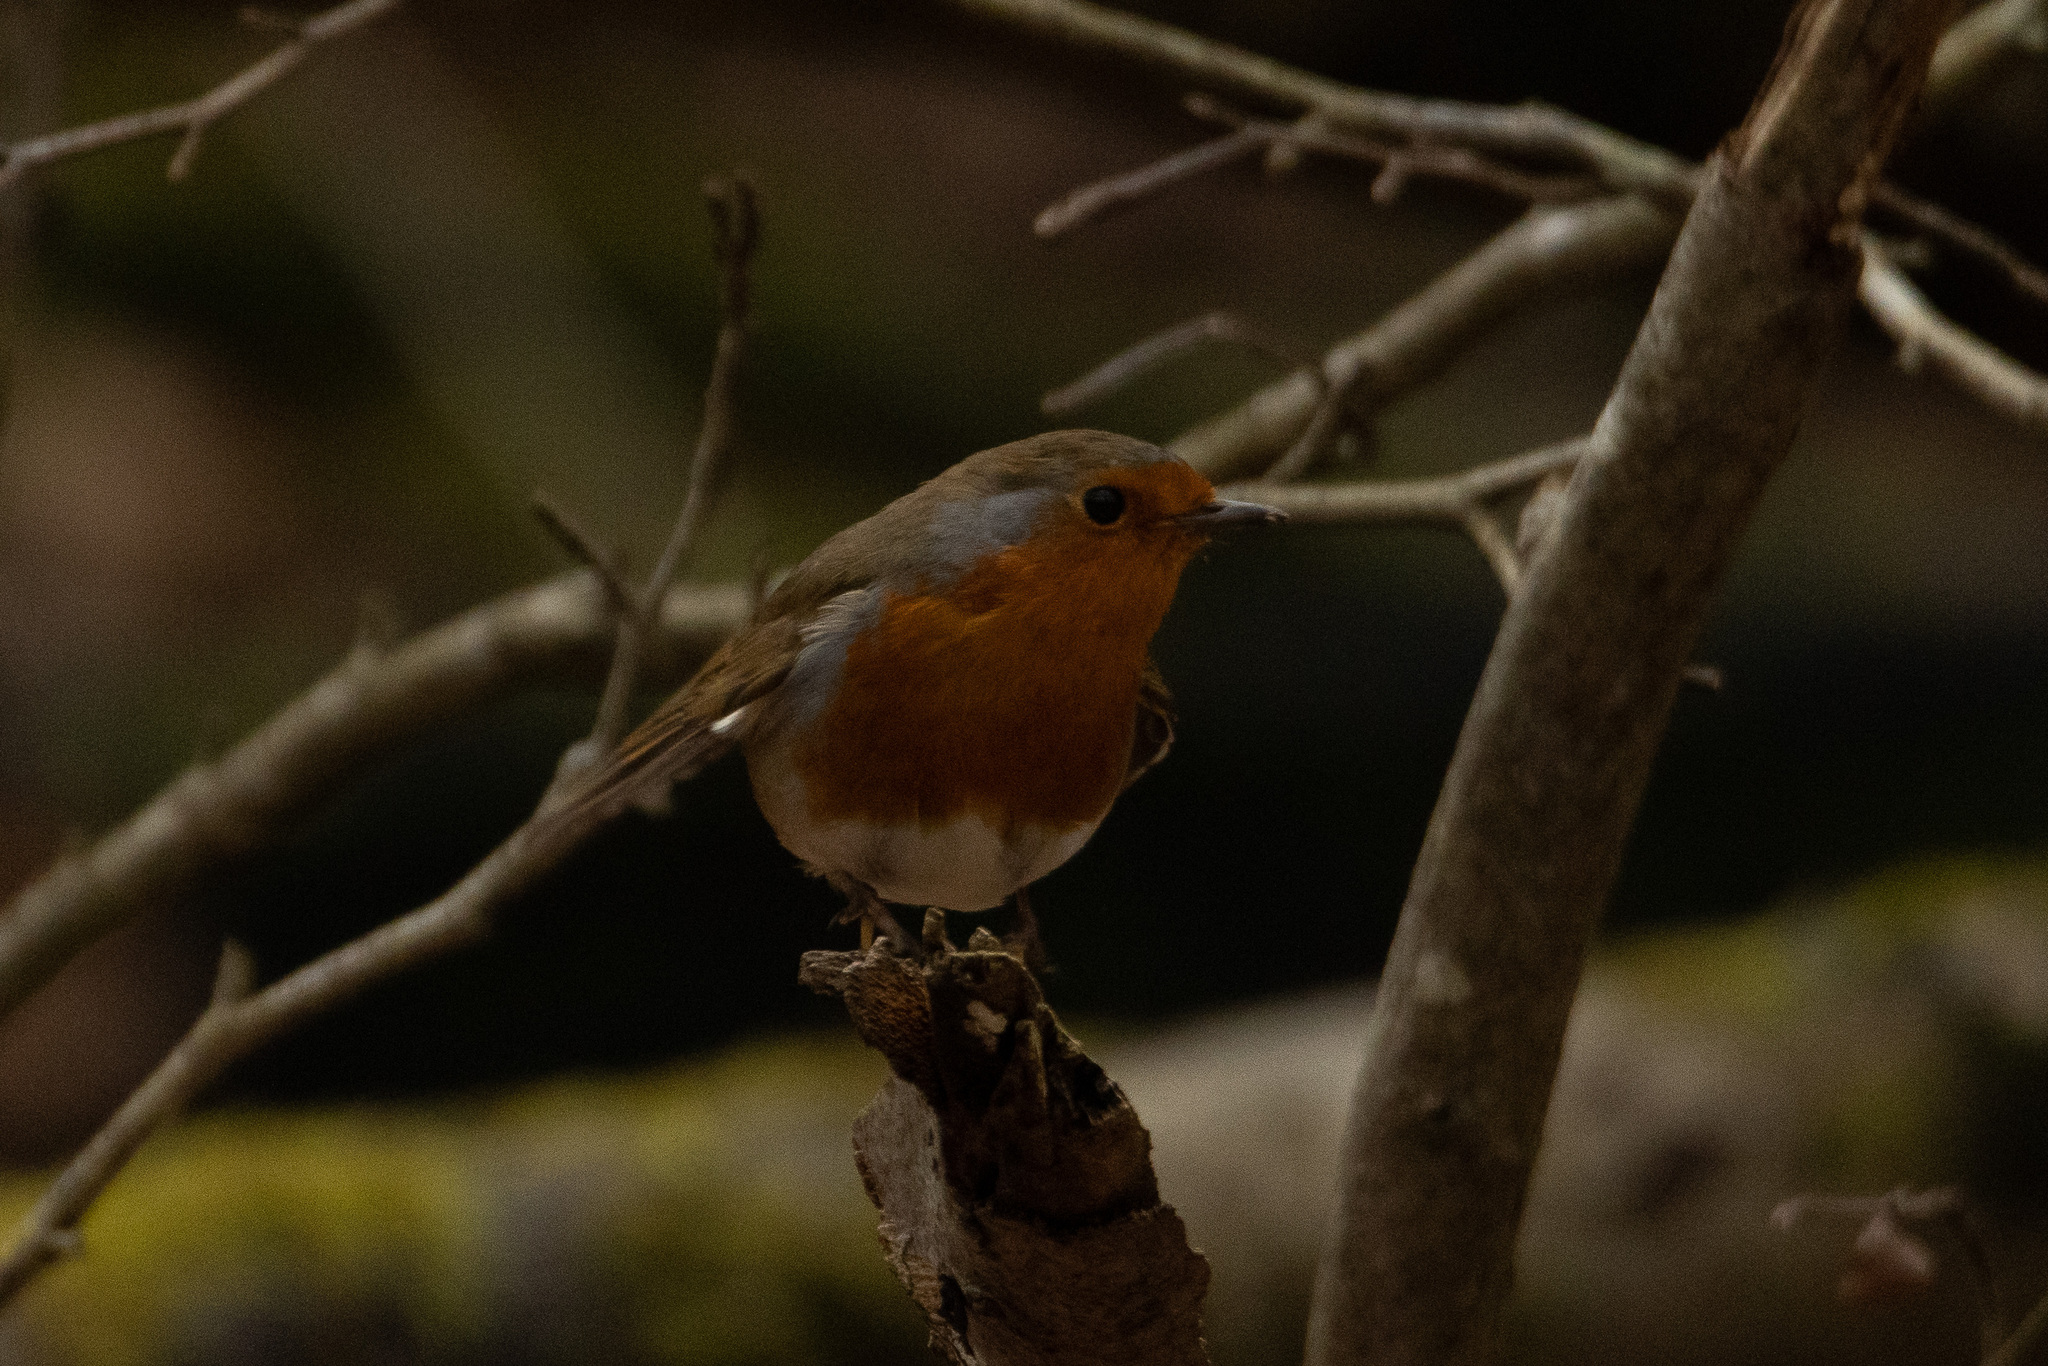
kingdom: Animalia
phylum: Chordata
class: Aves
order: Passeriformes
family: Muscicapidae
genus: Erithacus
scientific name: Erithacus rubecula
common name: European robin
